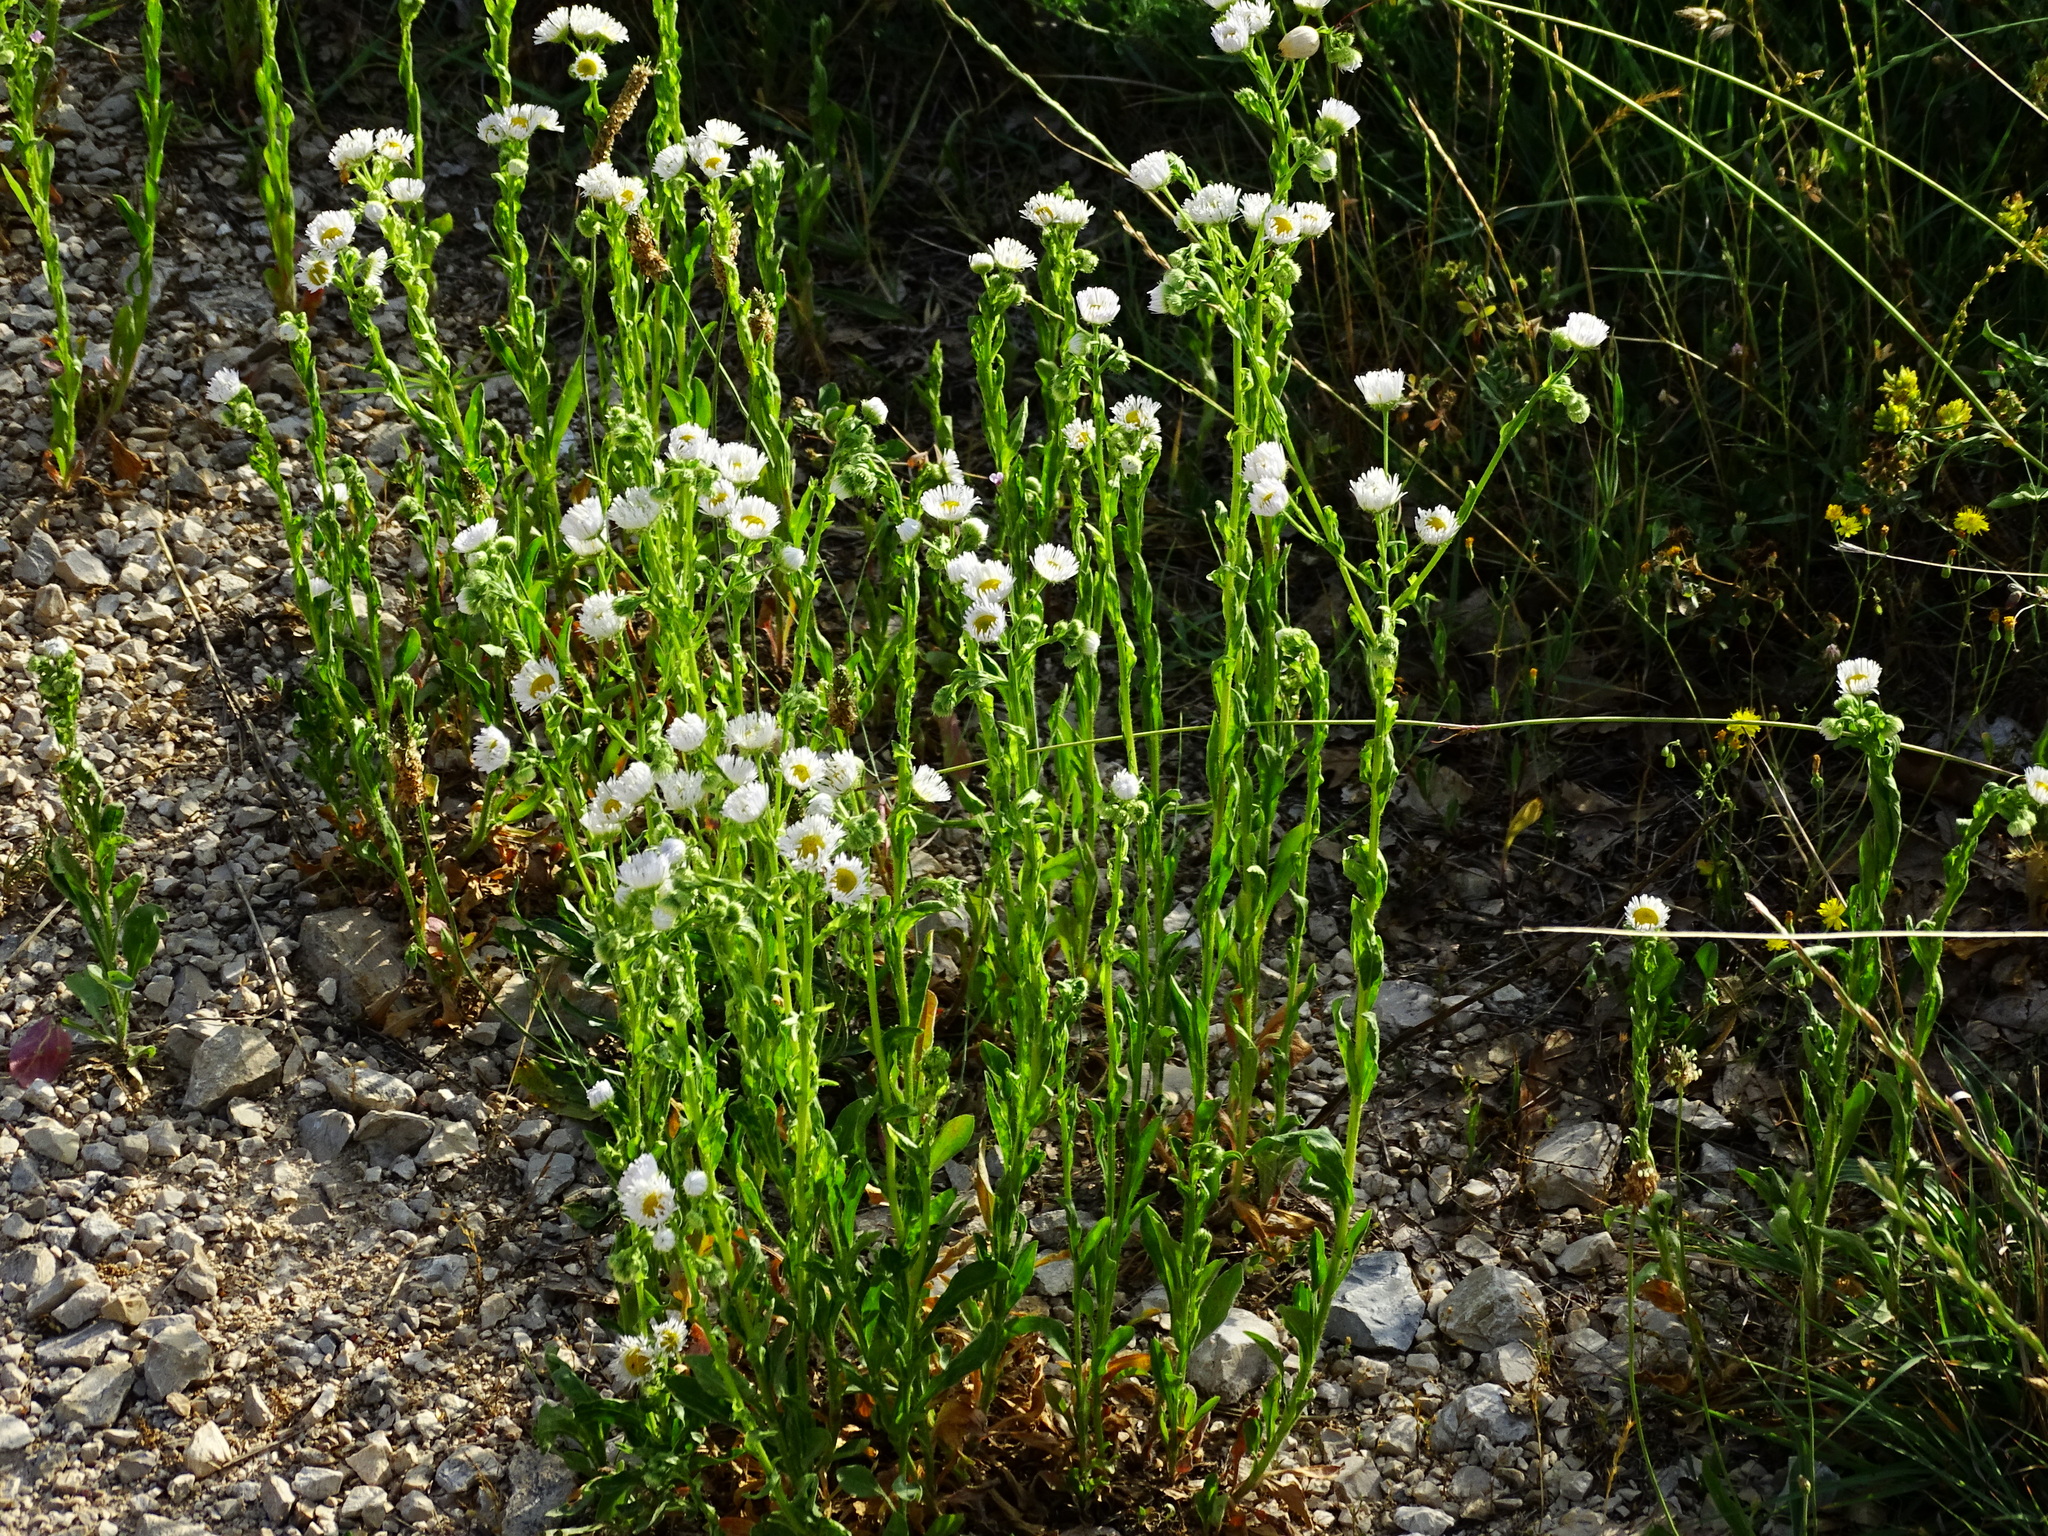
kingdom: Plantae
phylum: Tracheophyta
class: Magnoliopsida
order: Asterales
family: Asteraceae
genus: Erigeron
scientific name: Erigeron annuus
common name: Tall fleabane
